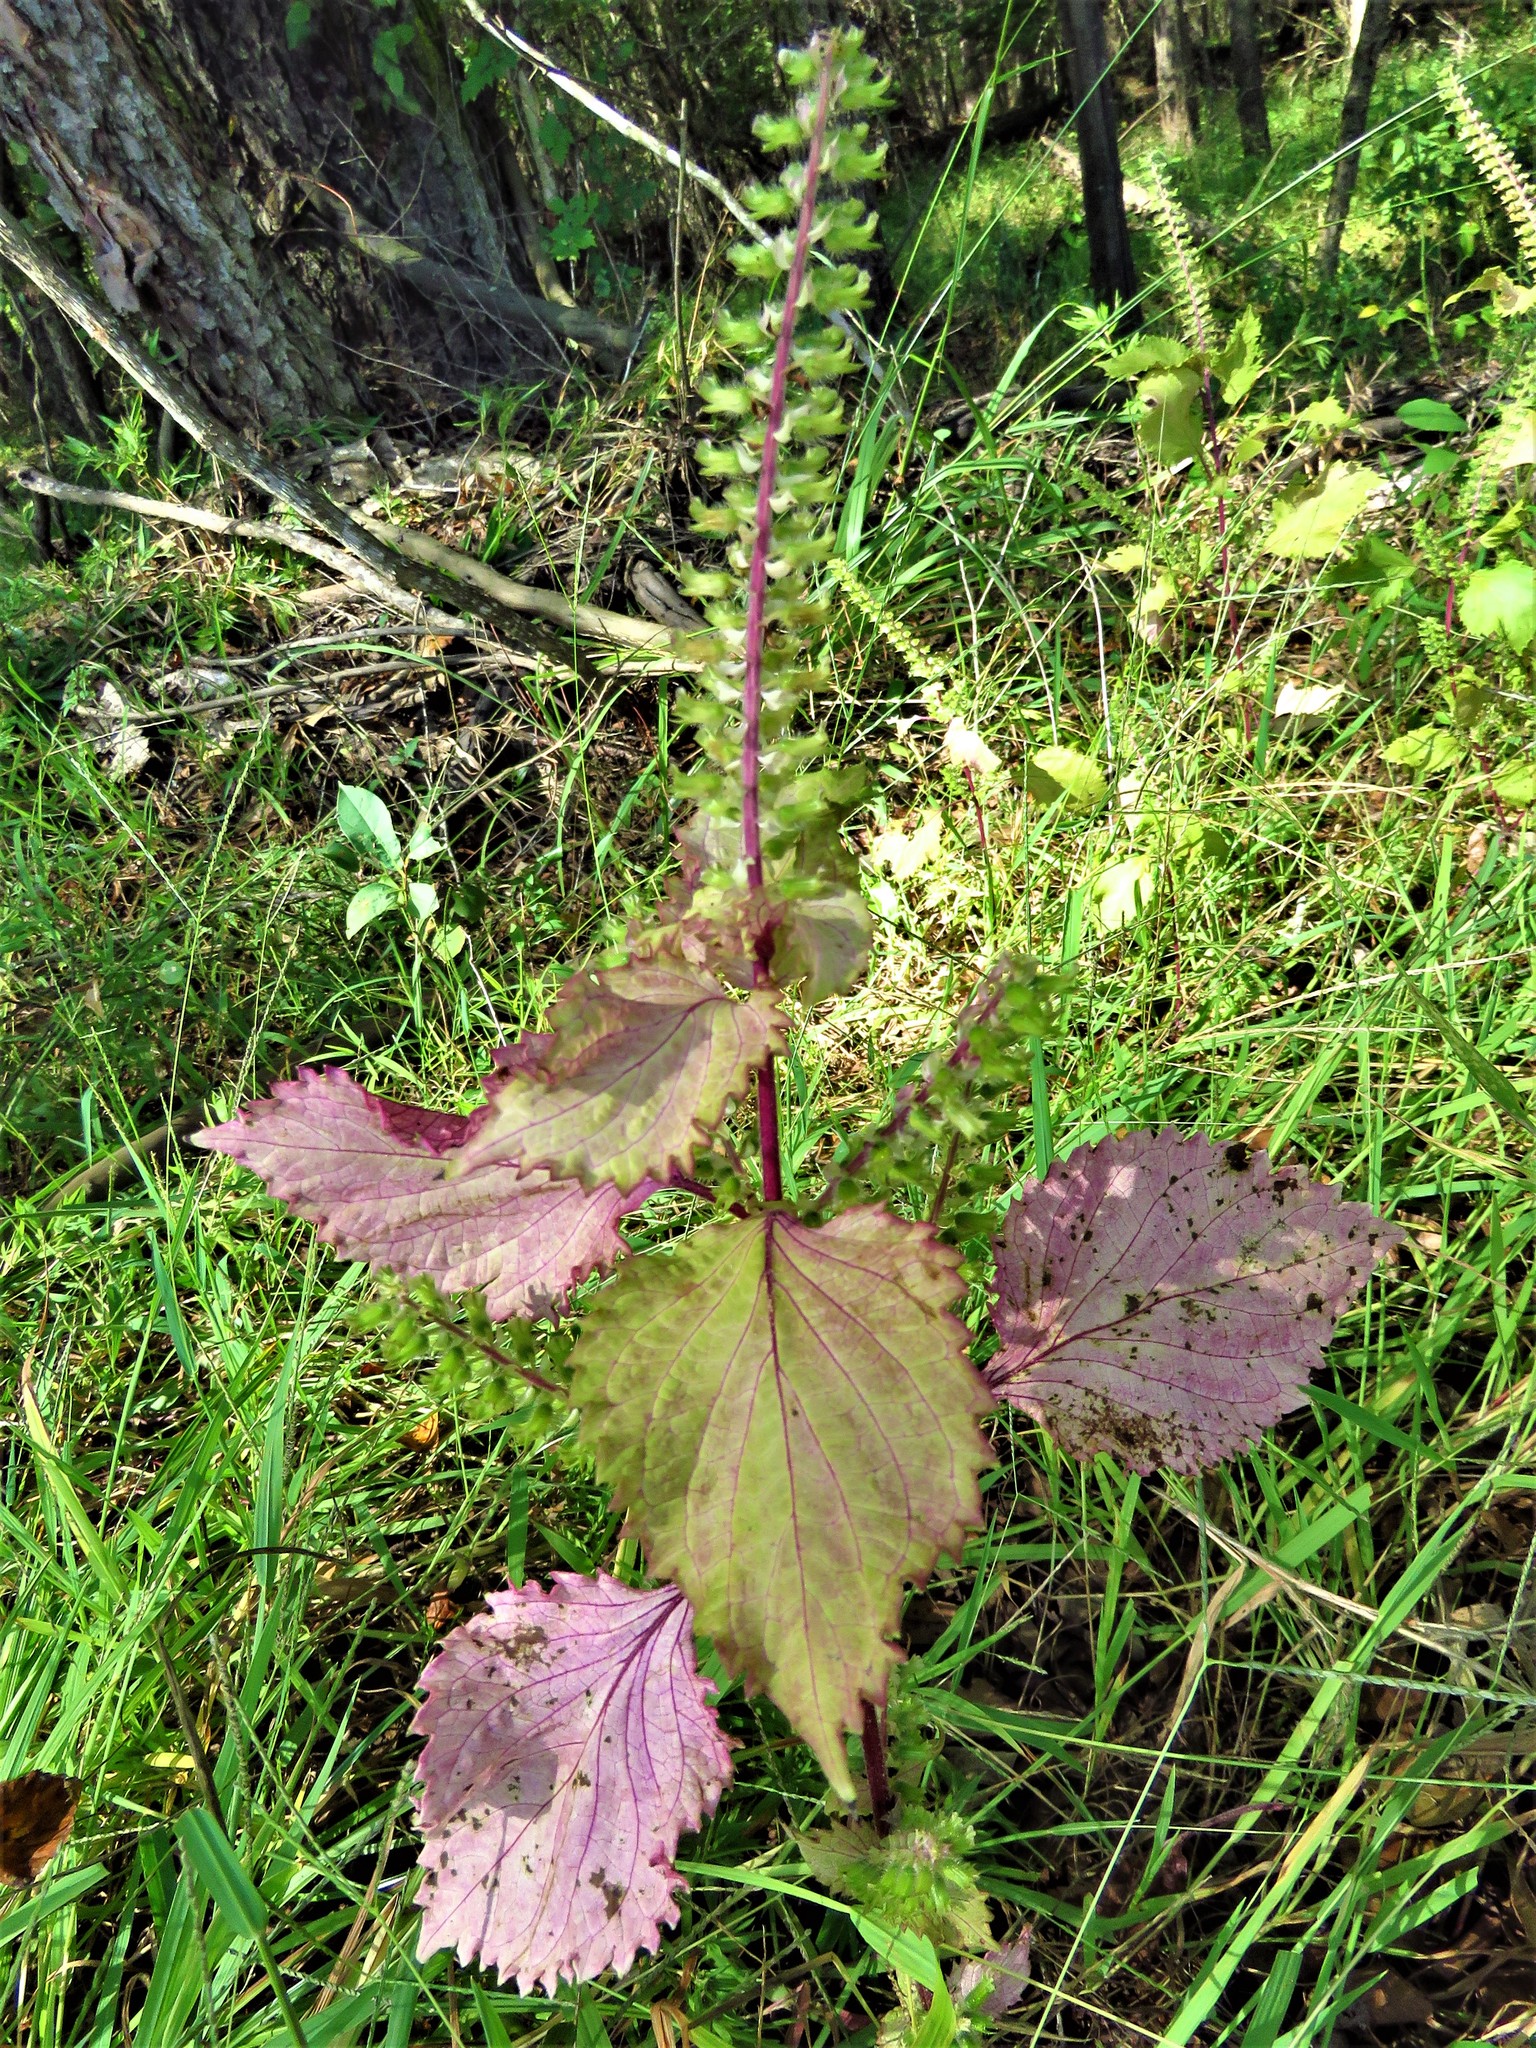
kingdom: Plantae
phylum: Tracheophyta
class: Magnoliopsida
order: Lamiales
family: Lamiaceae
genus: Perilla
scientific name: Perilla frutescens
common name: Perilla
